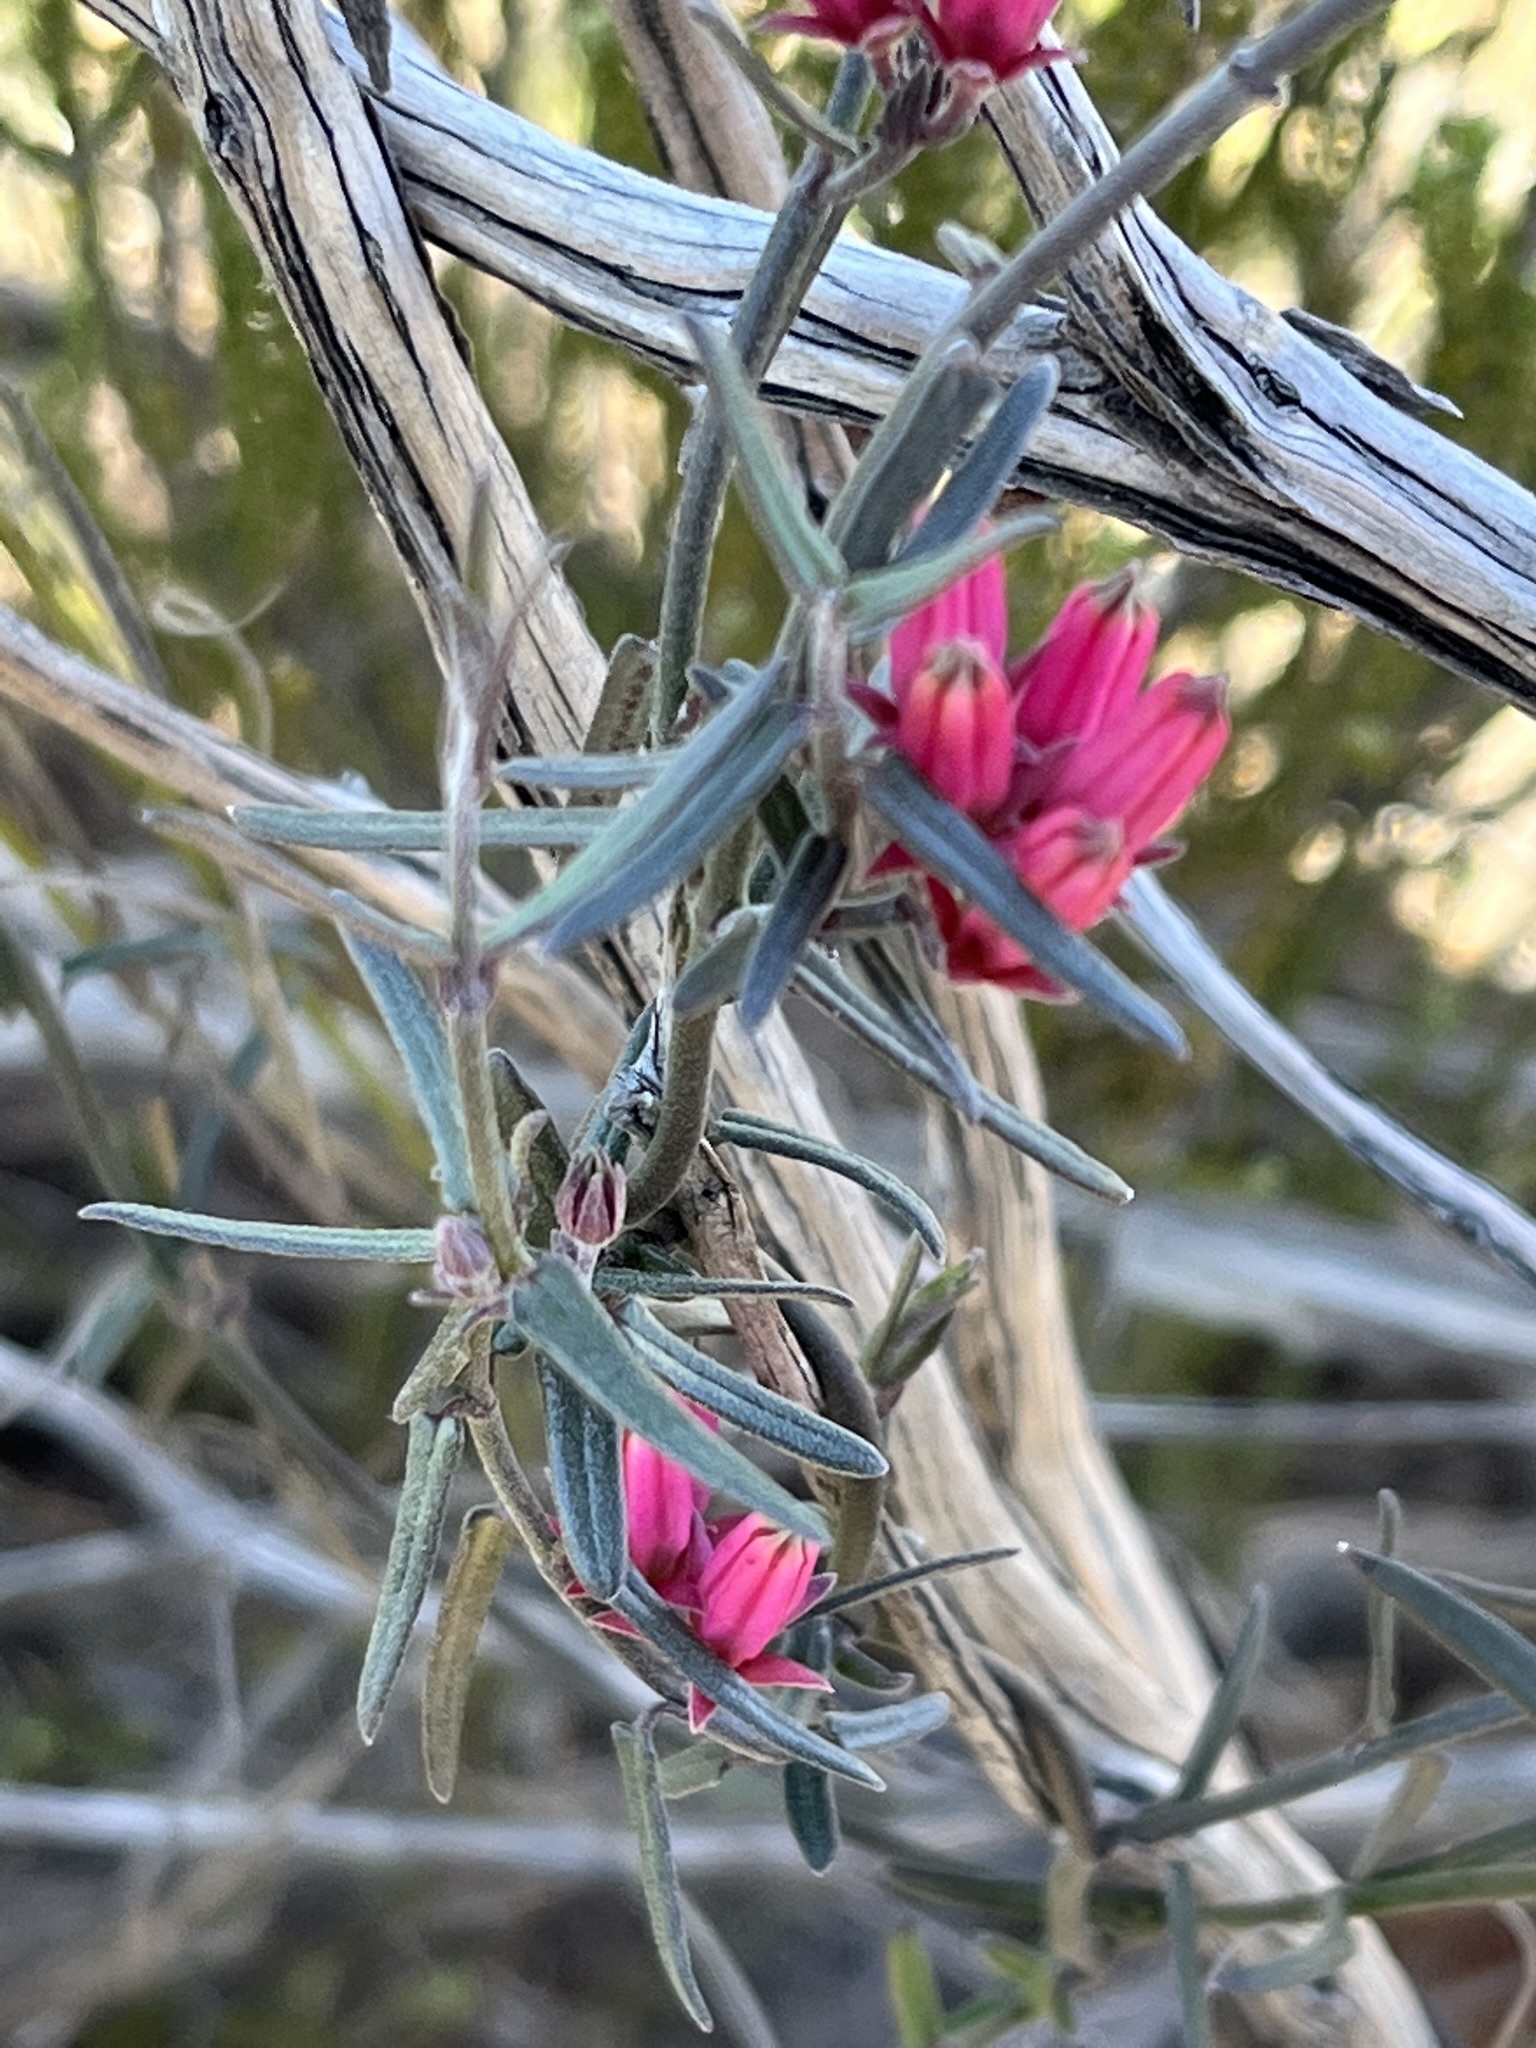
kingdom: Plantae
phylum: Tracheophyta
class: Magnoliopsida
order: Gentianales
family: Apocynaceae
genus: Microloma
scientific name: Microloma sagittatum
